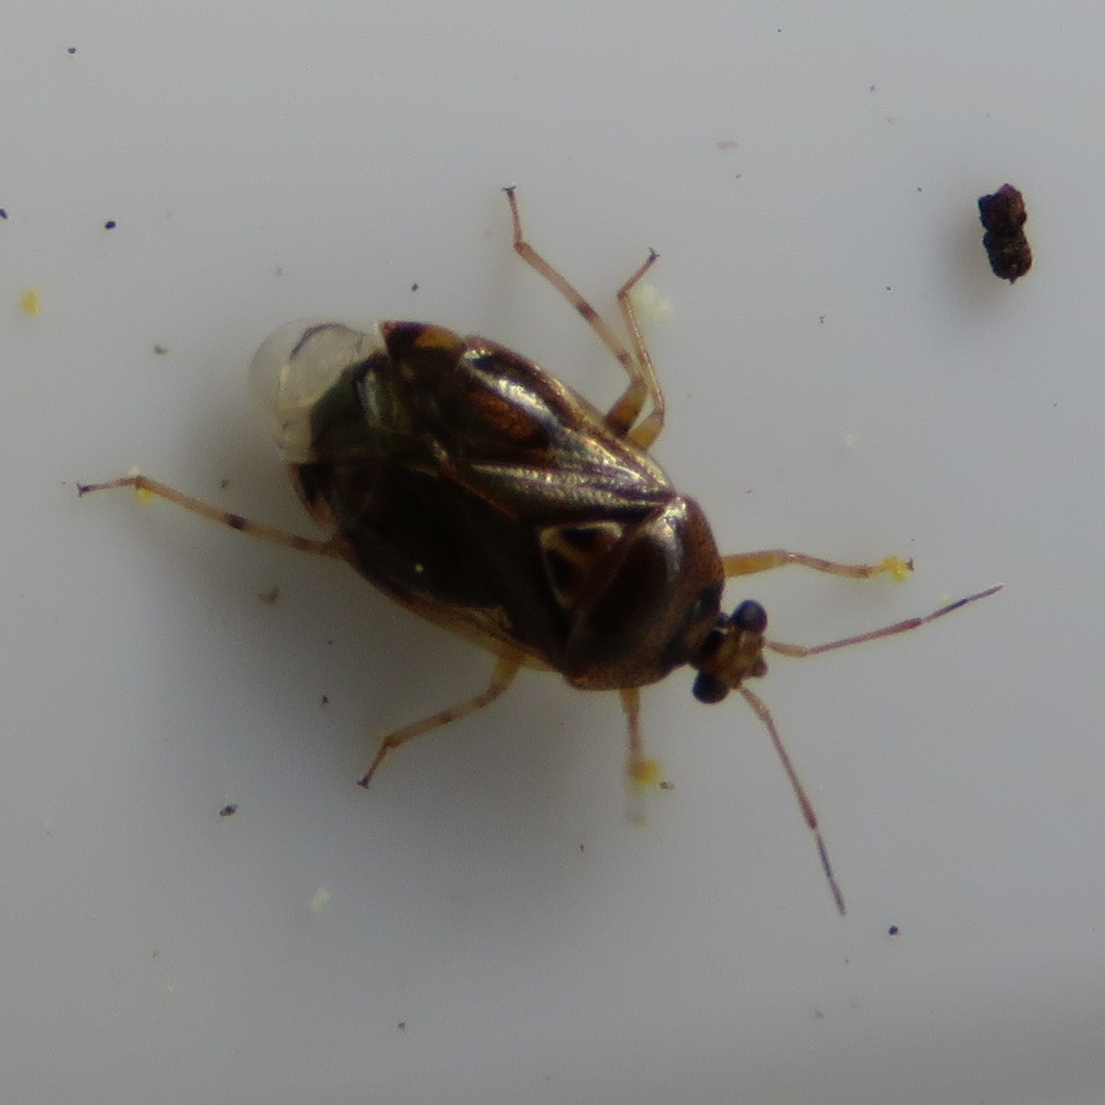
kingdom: Animalia
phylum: Arthropoda
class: Insecta
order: Hemiptera
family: Miridae
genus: Deraeocoris
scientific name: Deraeocoris lutescens
